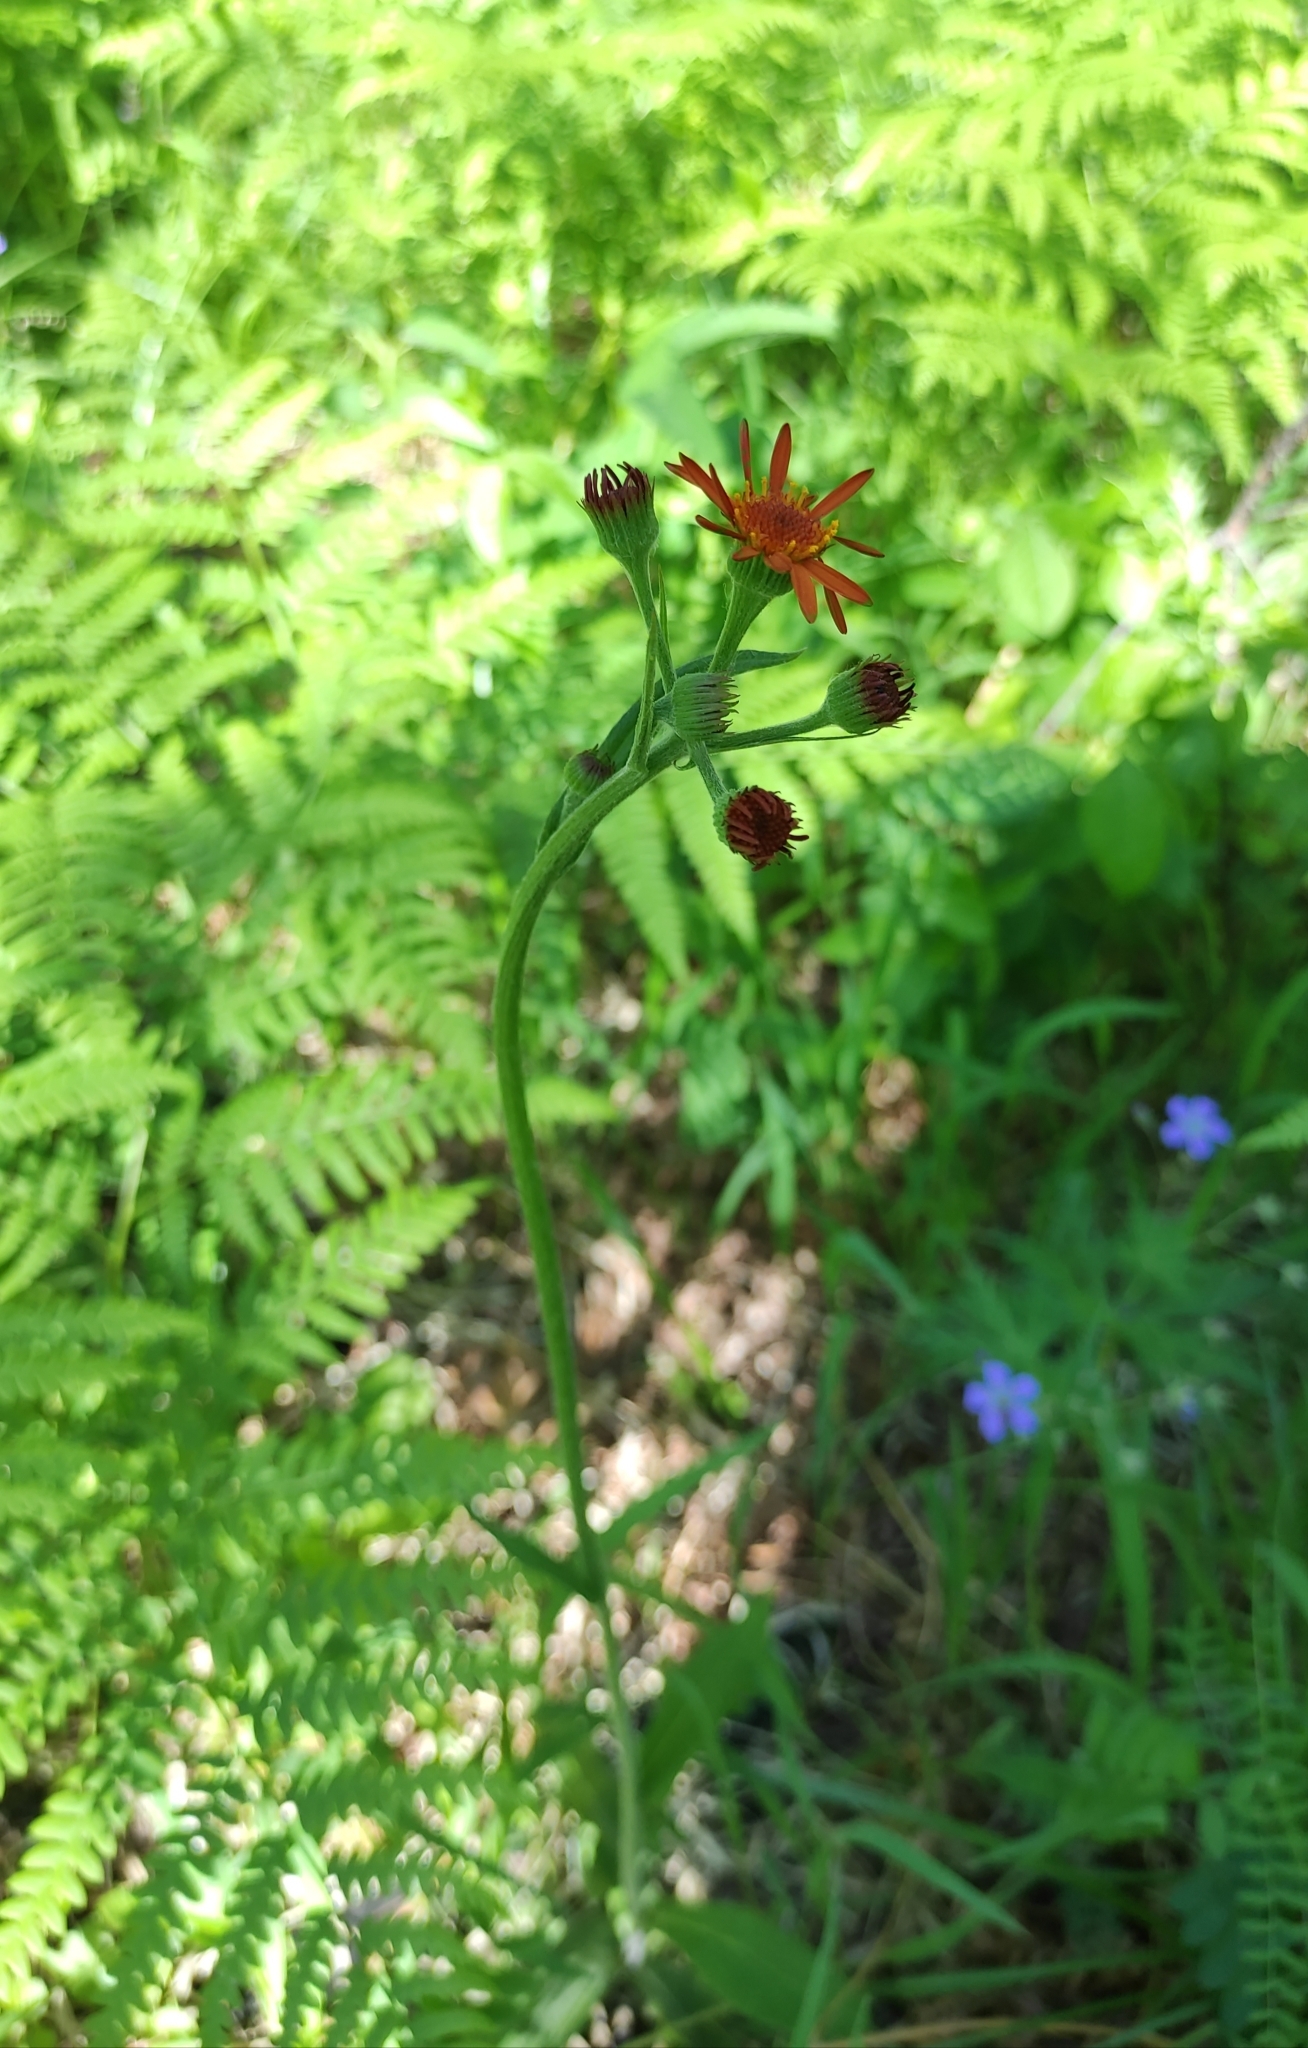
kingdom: Plantae
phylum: Tracheophyta
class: Magnoliopsida
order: Asterales
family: Asteraceae
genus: Tephroseris
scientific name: Tephroseris porphyrantha
